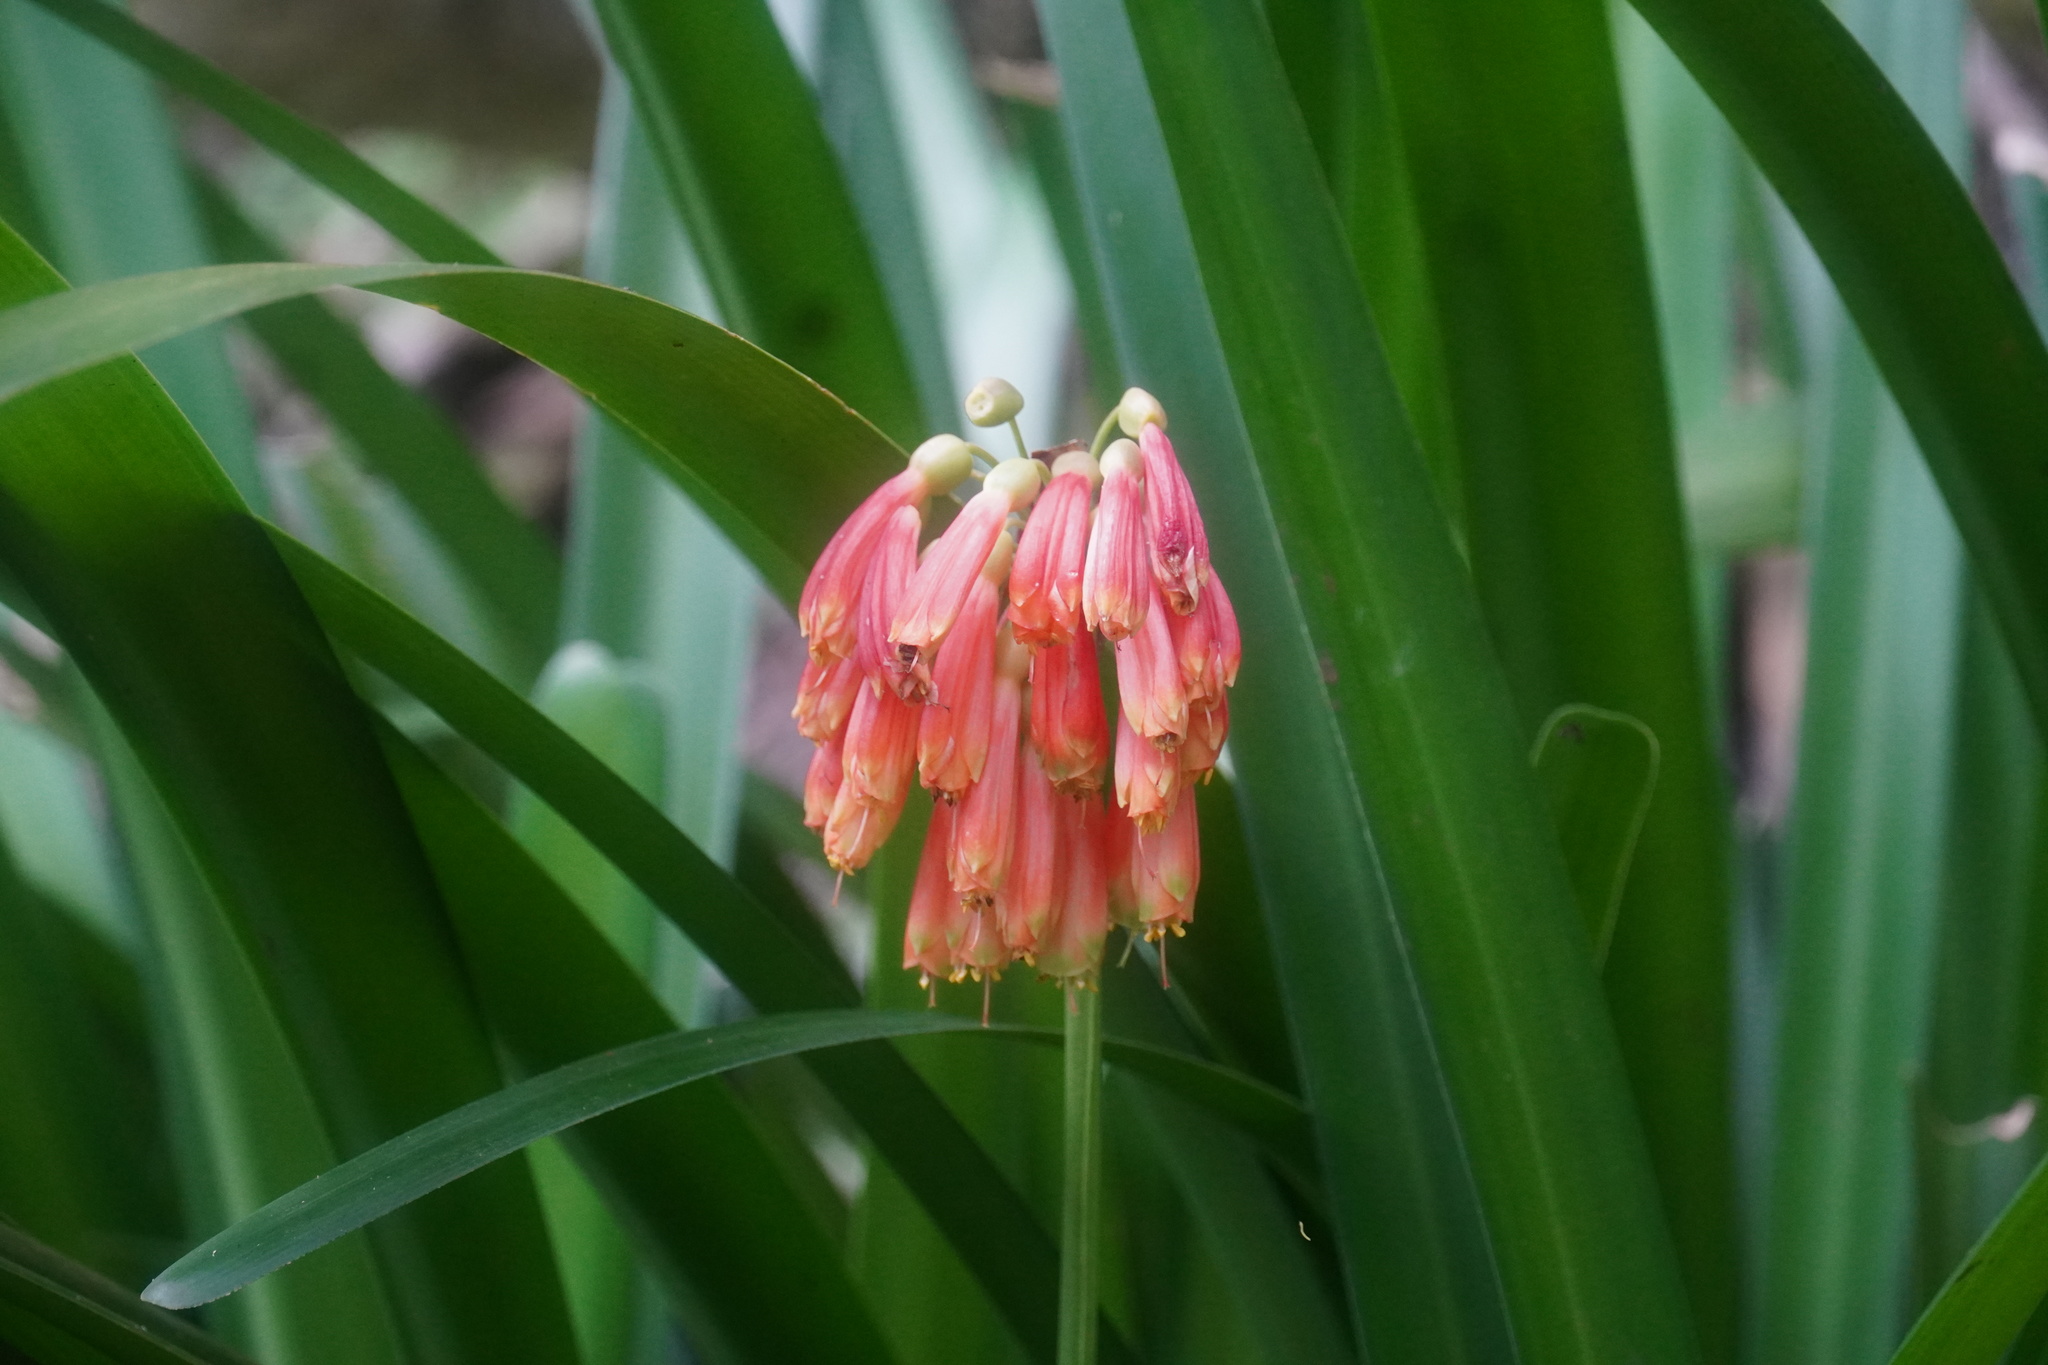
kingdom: Plantae
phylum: Tracheophyta
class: Liliopsida
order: Asparagales
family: Amaryllidaceae
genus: Clivia
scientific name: Clivia nobilis
